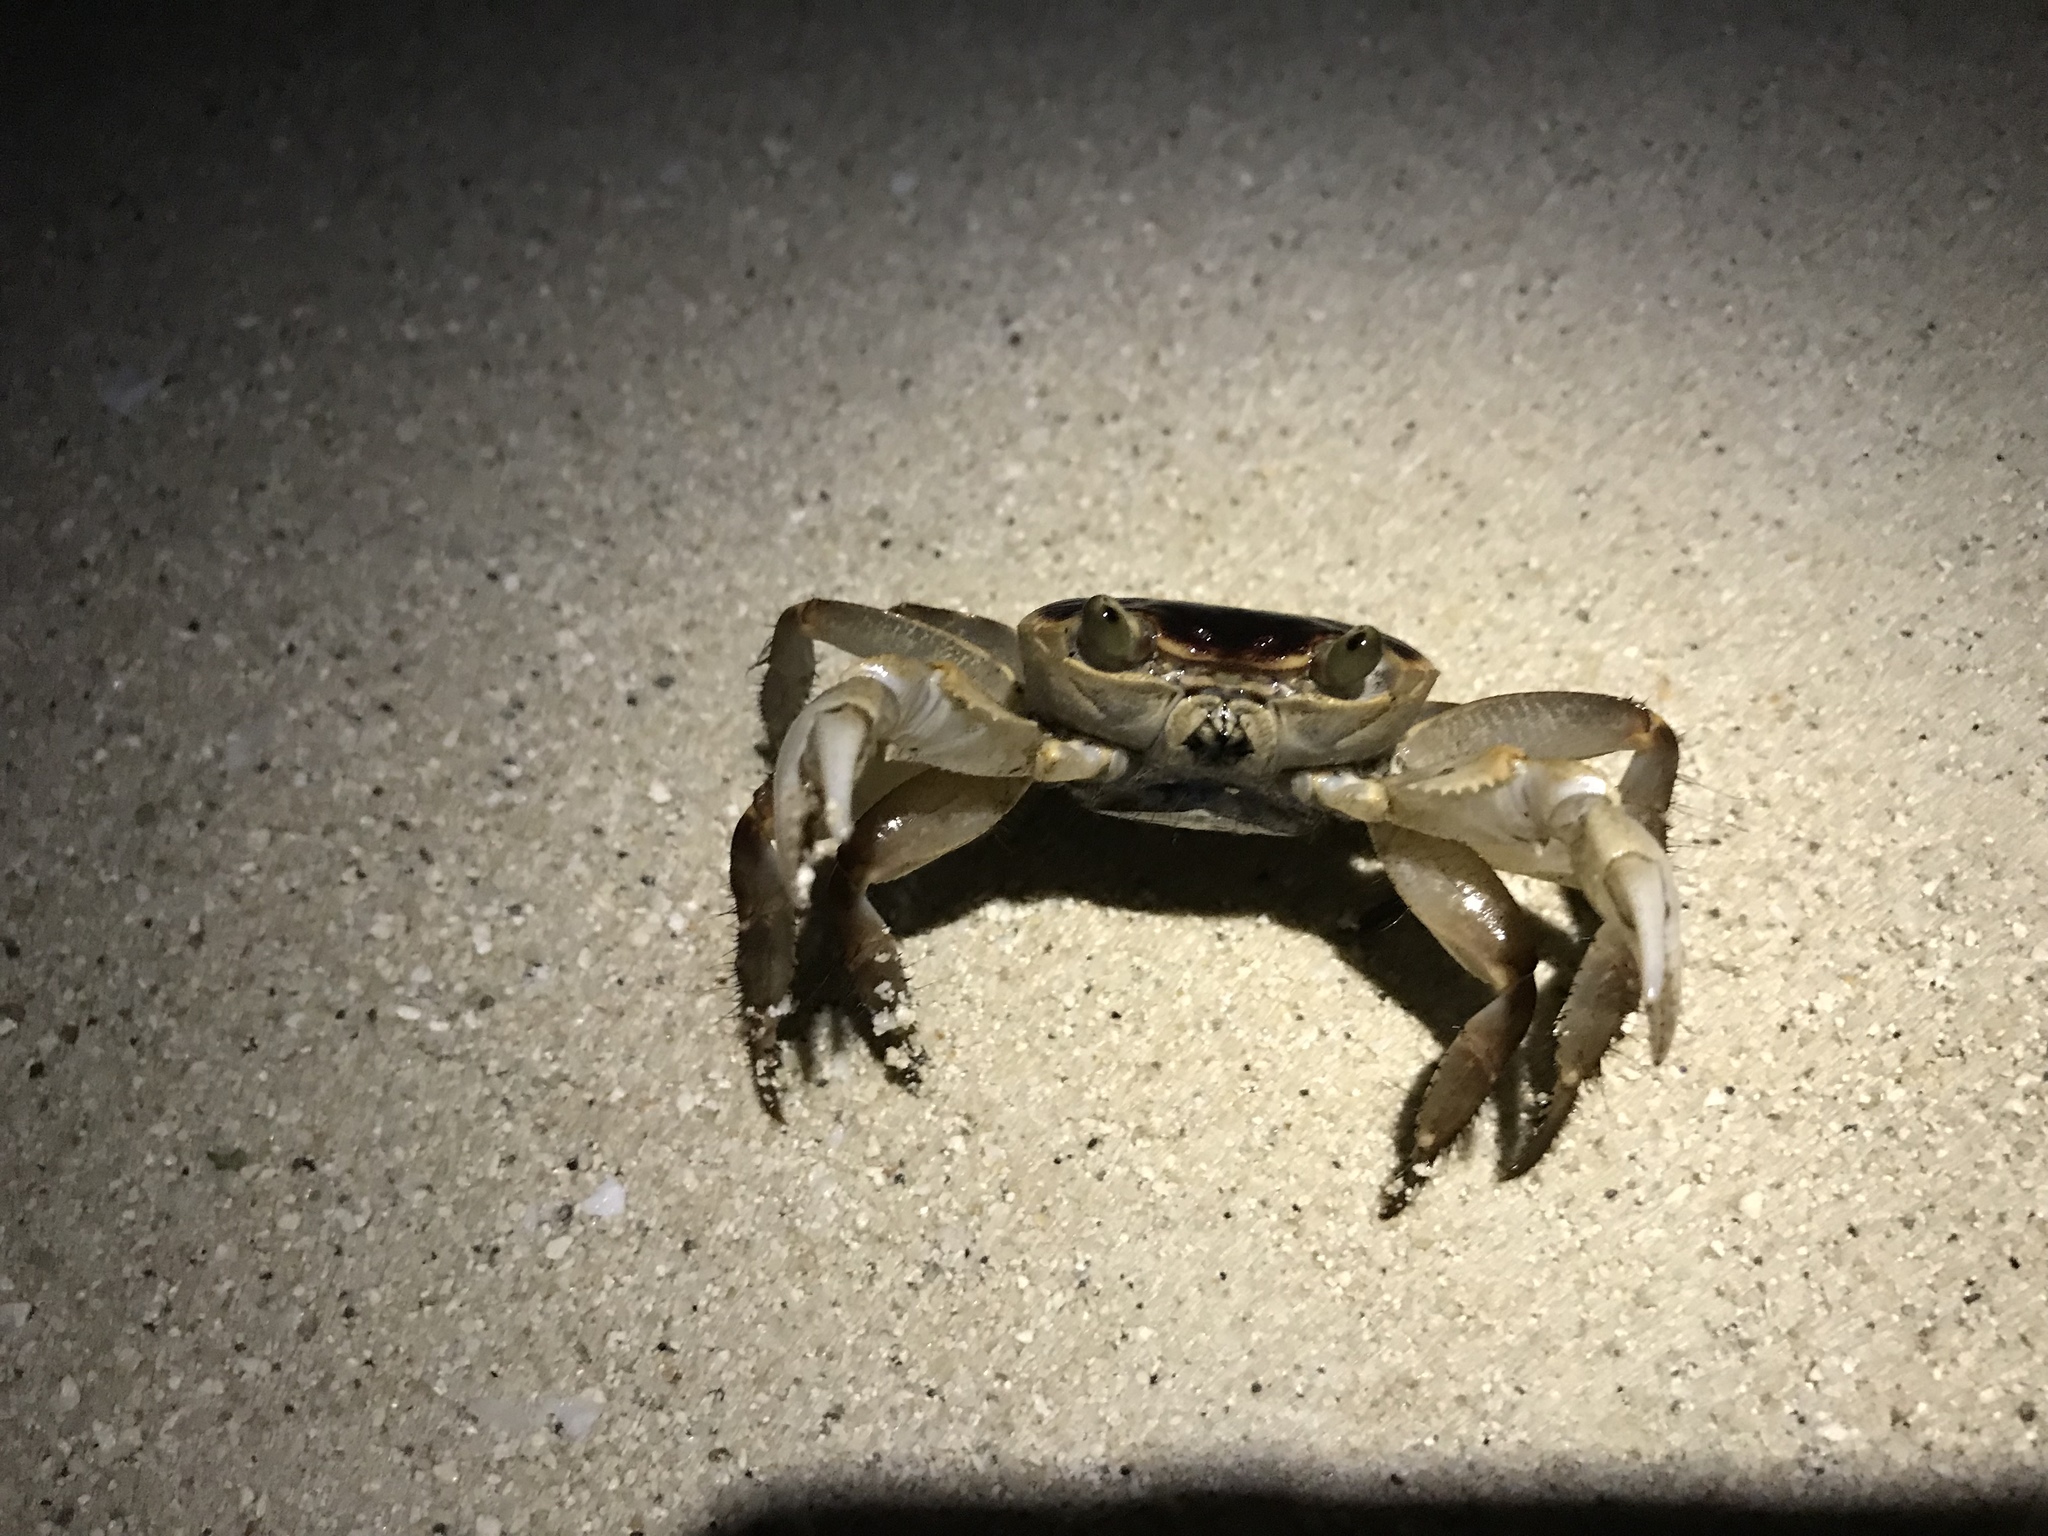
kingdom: Animalia
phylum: Arthropoda
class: Malacostraca
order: Decapoda
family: Grapsidae
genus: Geograpsus
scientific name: Geograpsus grayi
